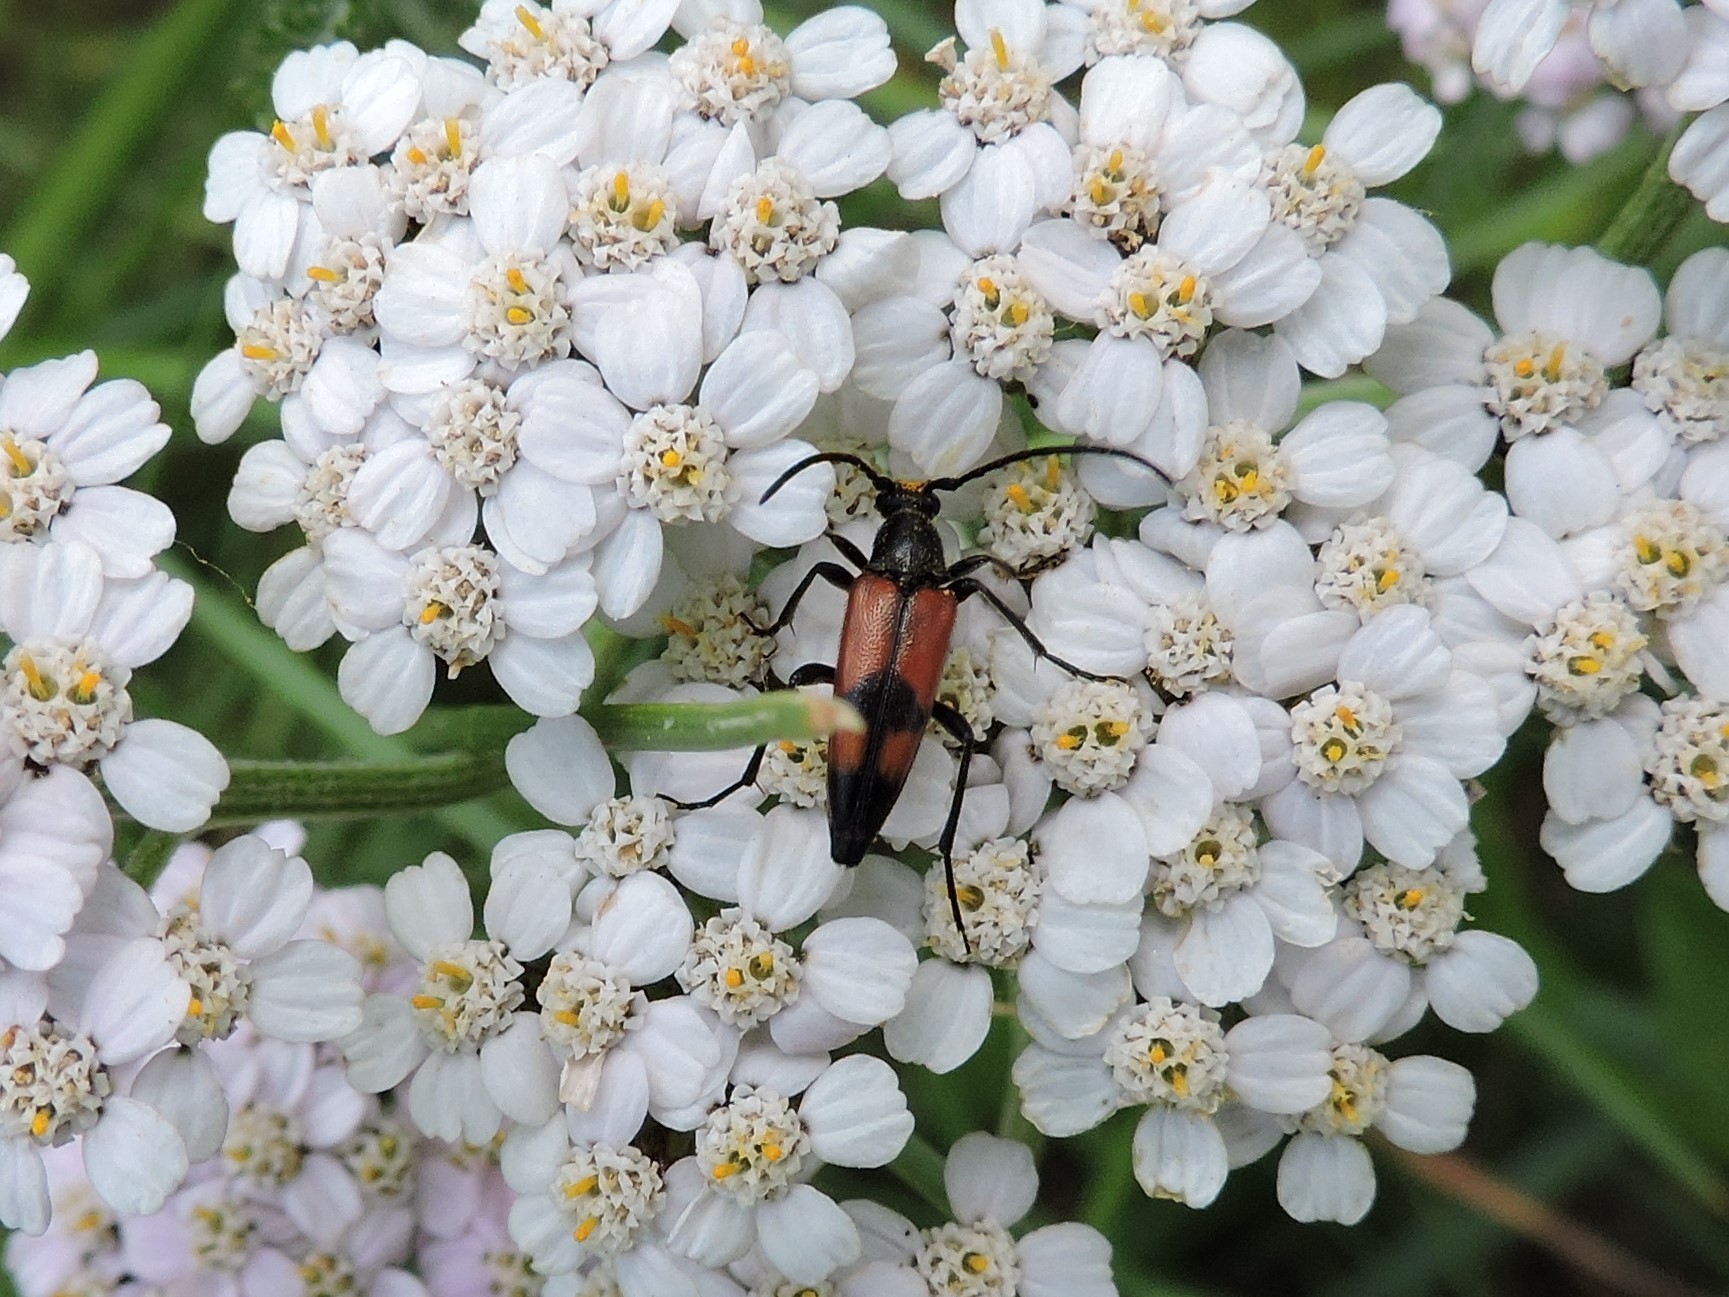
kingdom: Animalia
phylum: Arthropoda
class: Insecta
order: Coleoptera
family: Cerambycidae
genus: Stenurella
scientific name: Stenurella bifasciata
